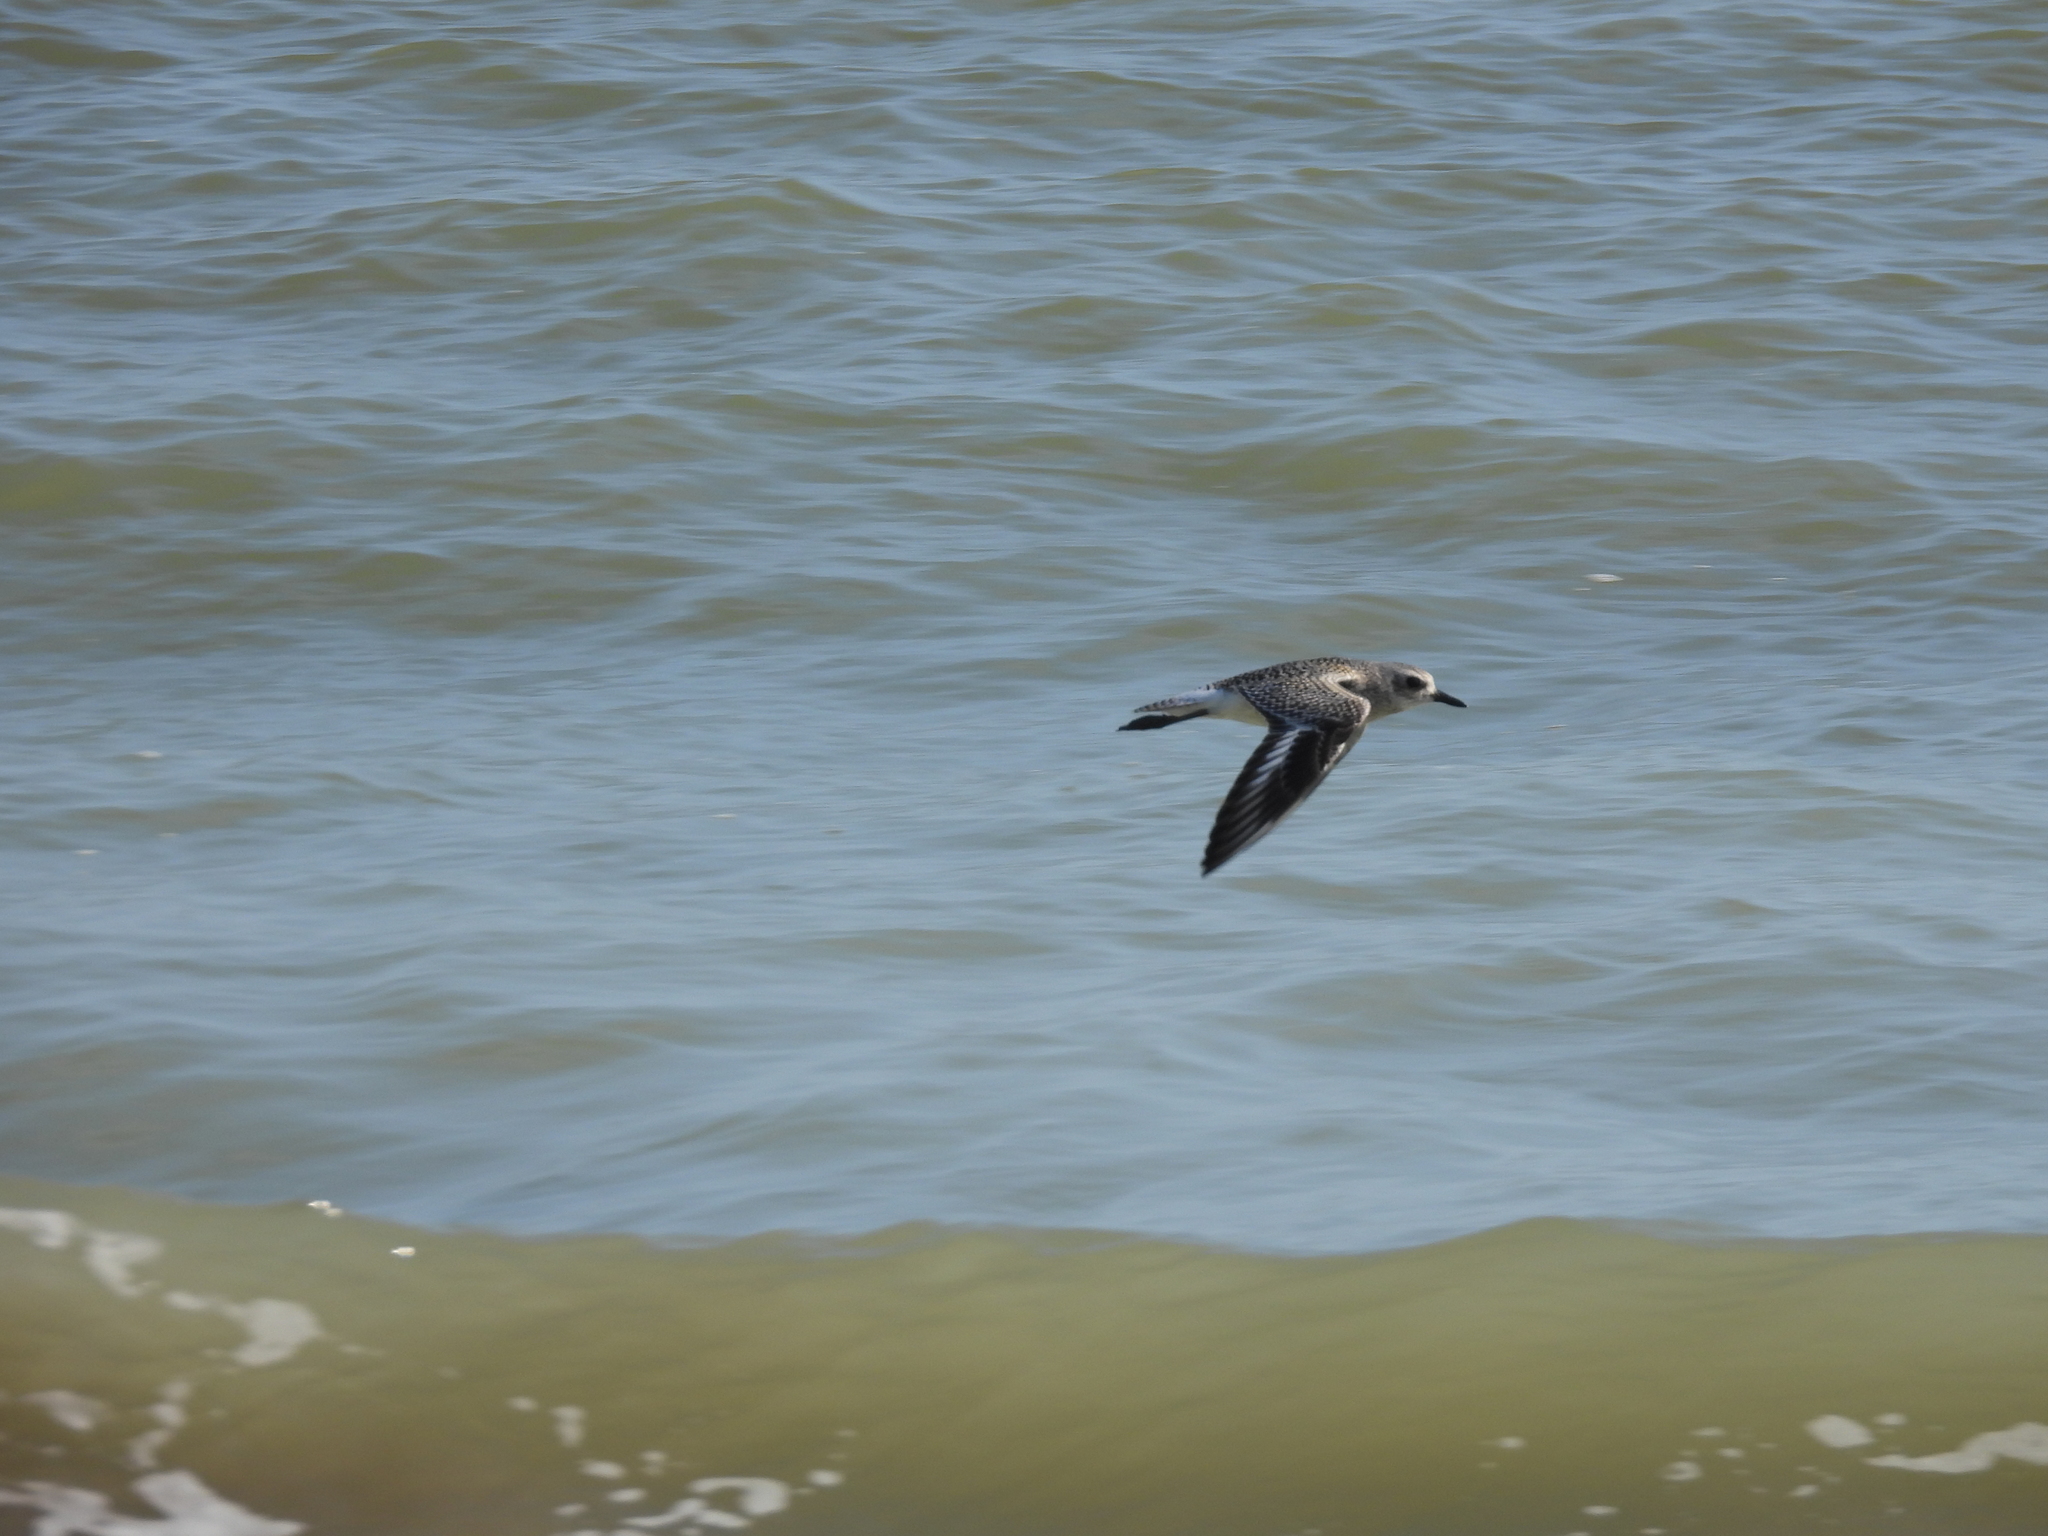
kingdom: Animalia
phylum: Chordata
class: Aves
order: Charadriiformes
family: Charadriidae
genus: Pluvialis
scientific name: Pluvialis squatarola
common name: Grey plover
